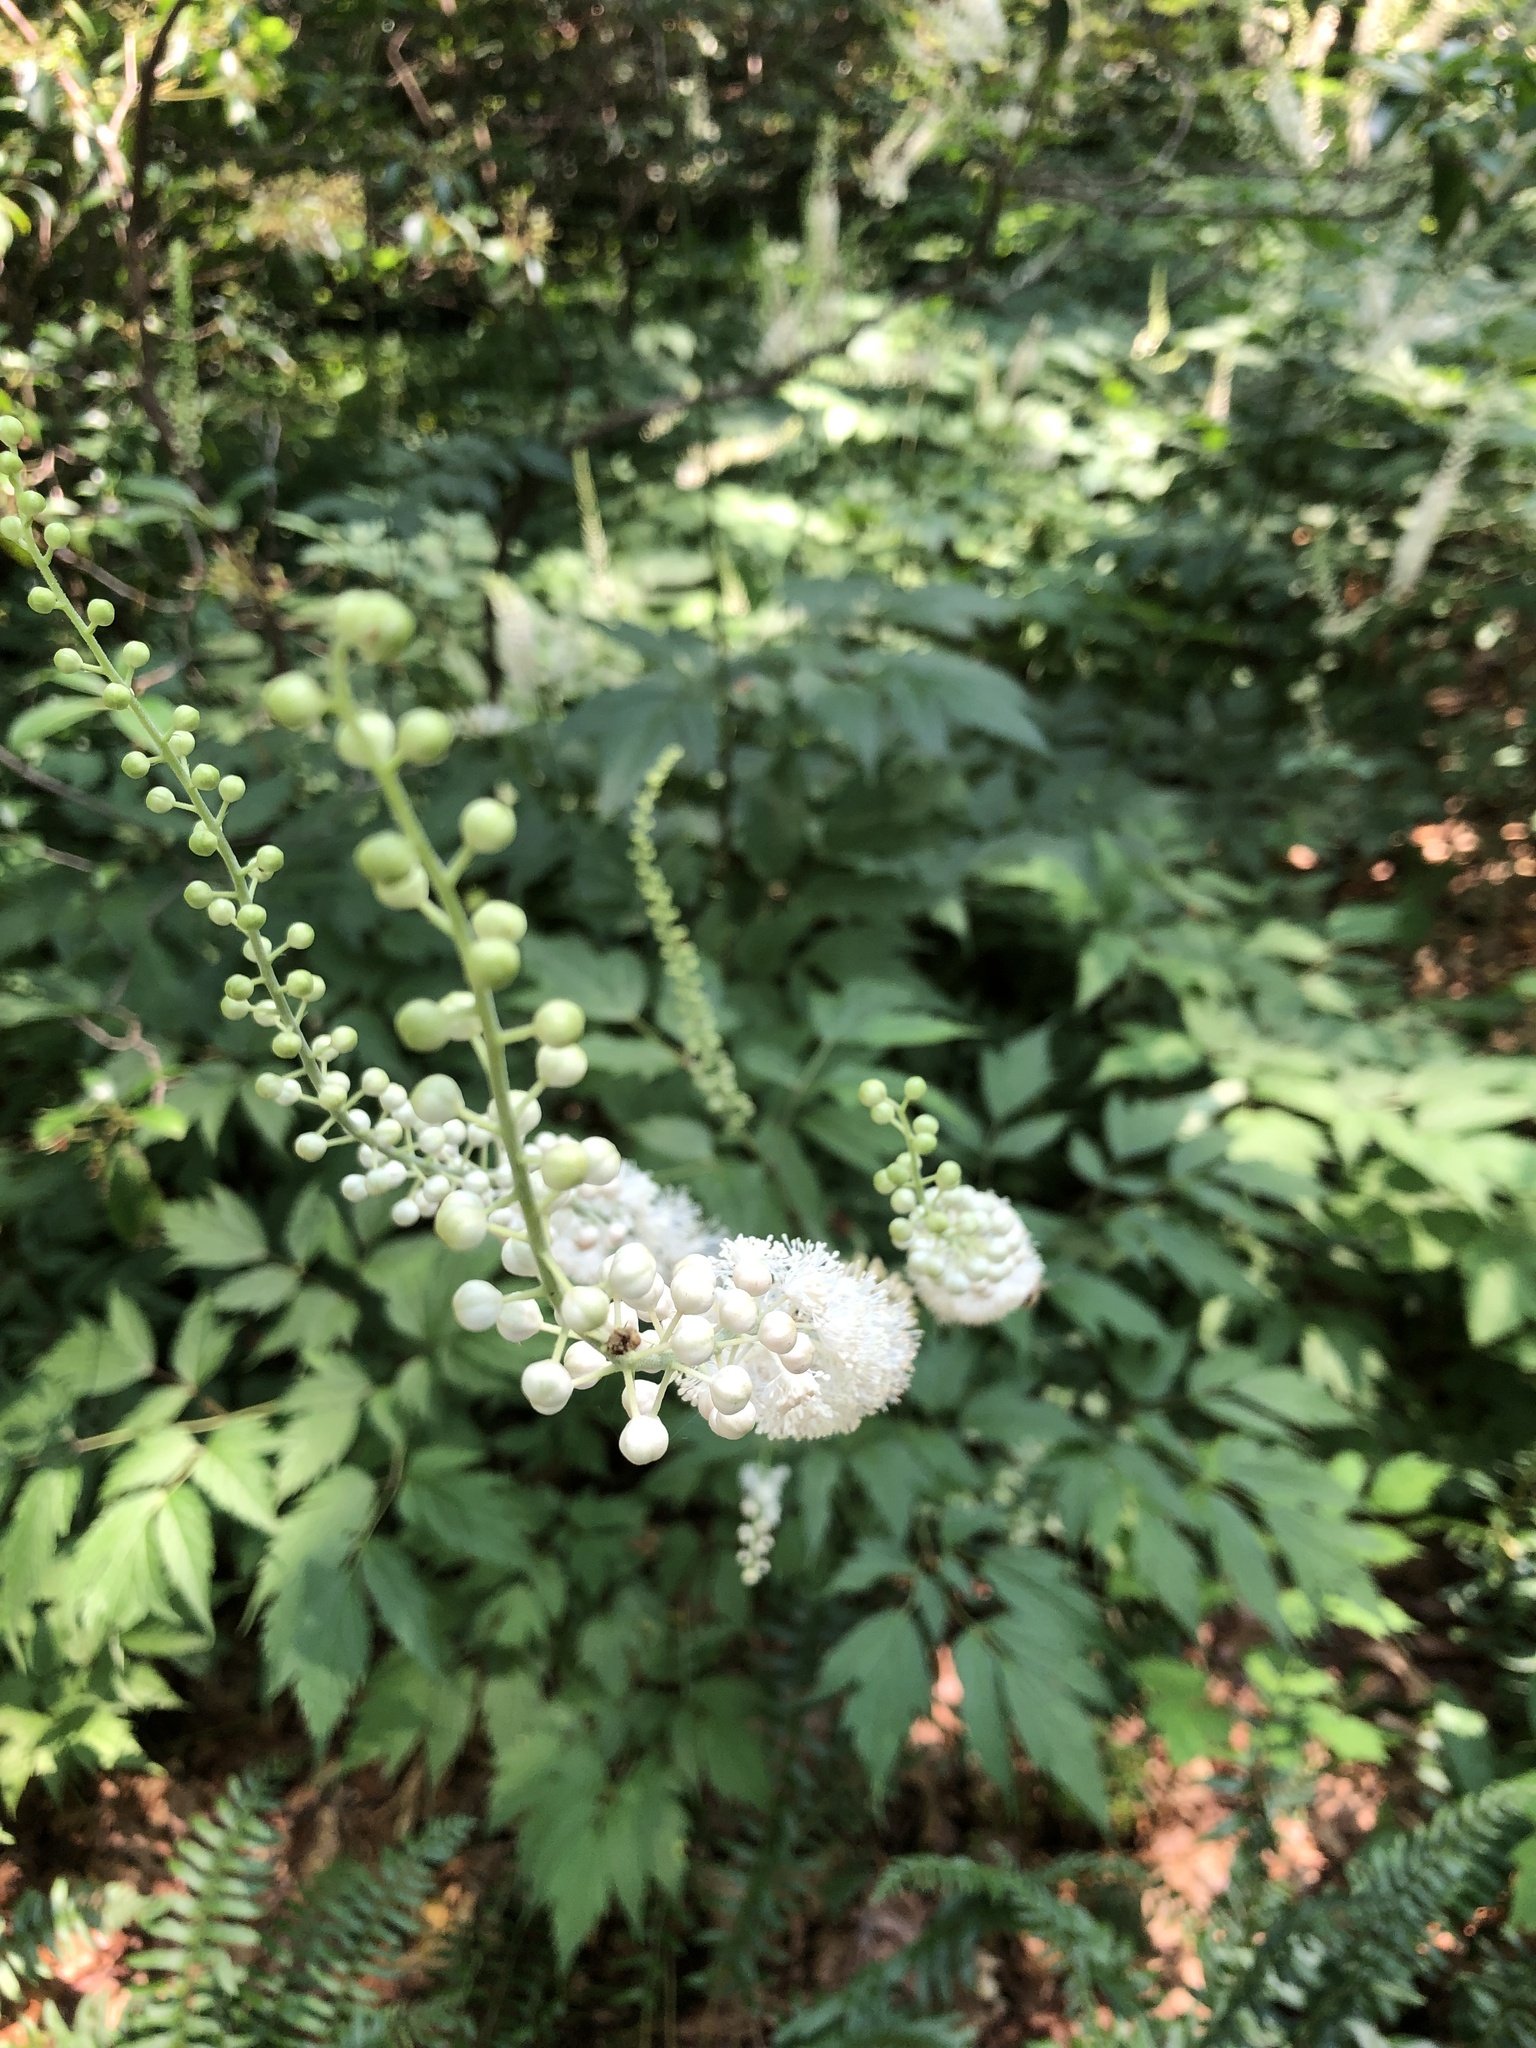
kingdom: Plantae
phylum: Tracheophyta
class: Magnoliopsida
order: Ranunculales
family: Ranunculaceae
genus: Actaea
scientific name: Actaea racemosa
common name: Black cohosh
